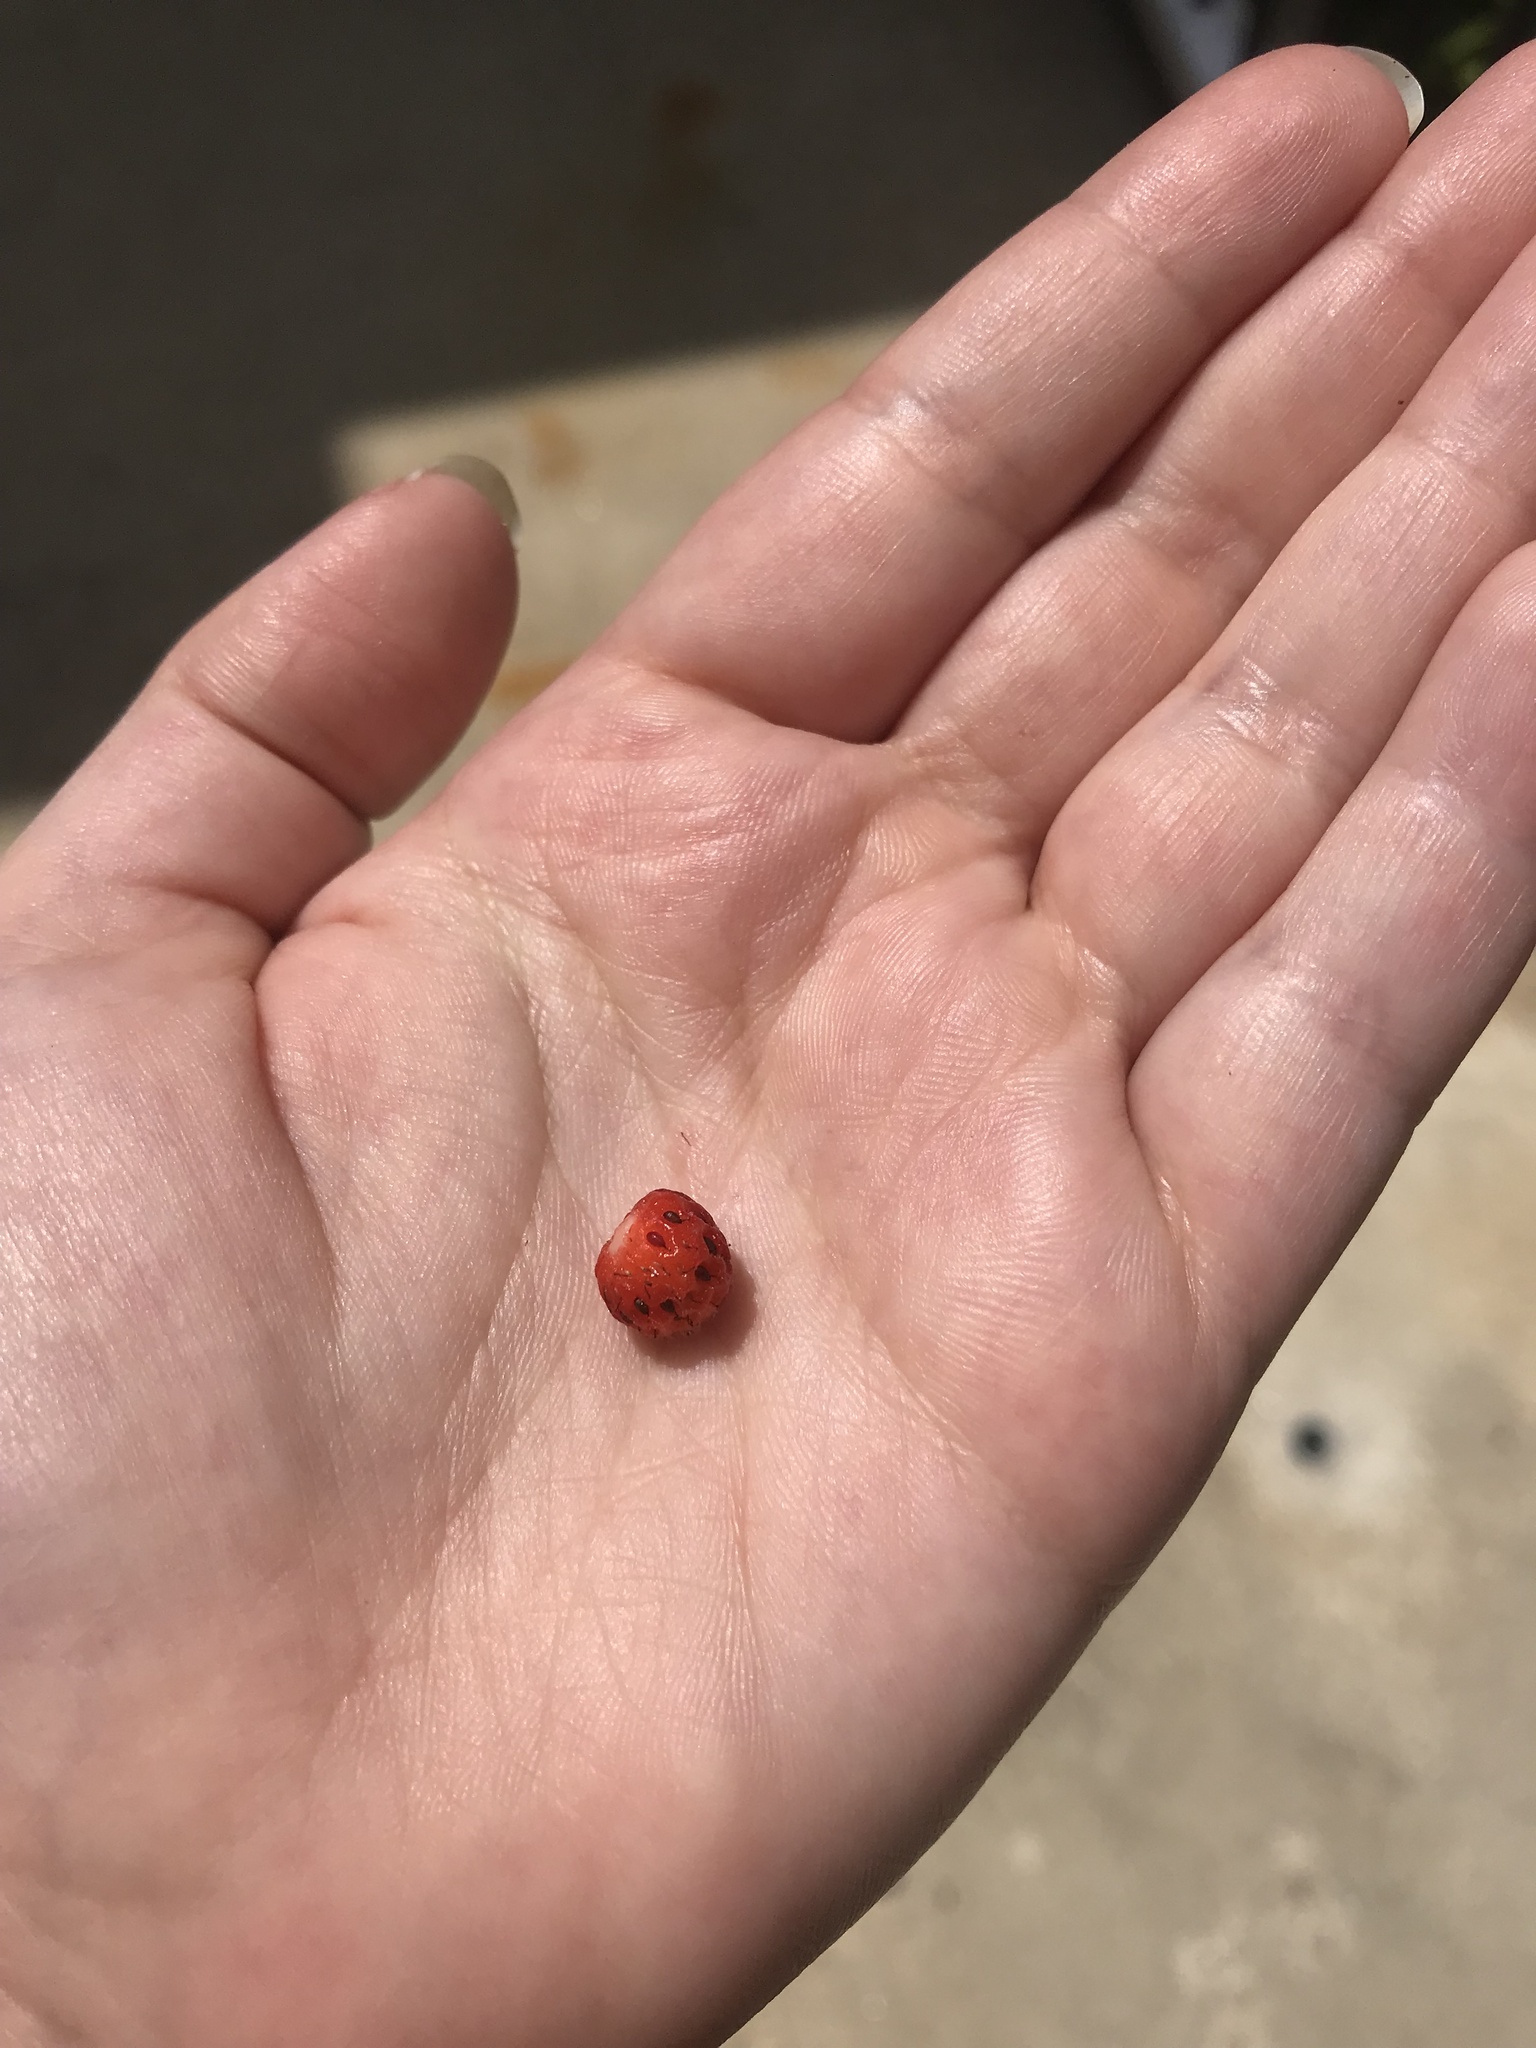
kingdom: Plantae
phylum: Tracheophyta
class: Magnoliopsida
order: Rosales
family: Rosaceae
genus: Fragaria
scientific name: Fragaria virginiana
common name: Thickleaved wild strawberry
